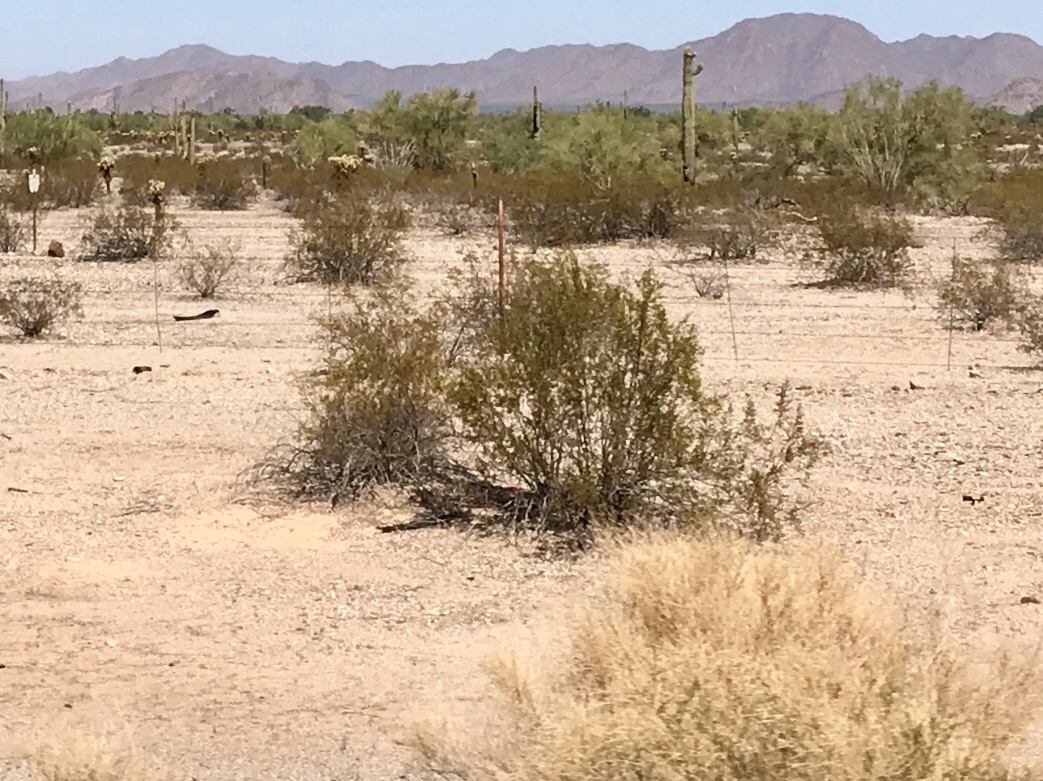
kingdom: Plantae
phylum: Tracheophyta
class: Magnoliopsida
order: Zygophyllales
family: Zygophyllaceae
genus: Larrea
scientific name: Larrea tridentata
